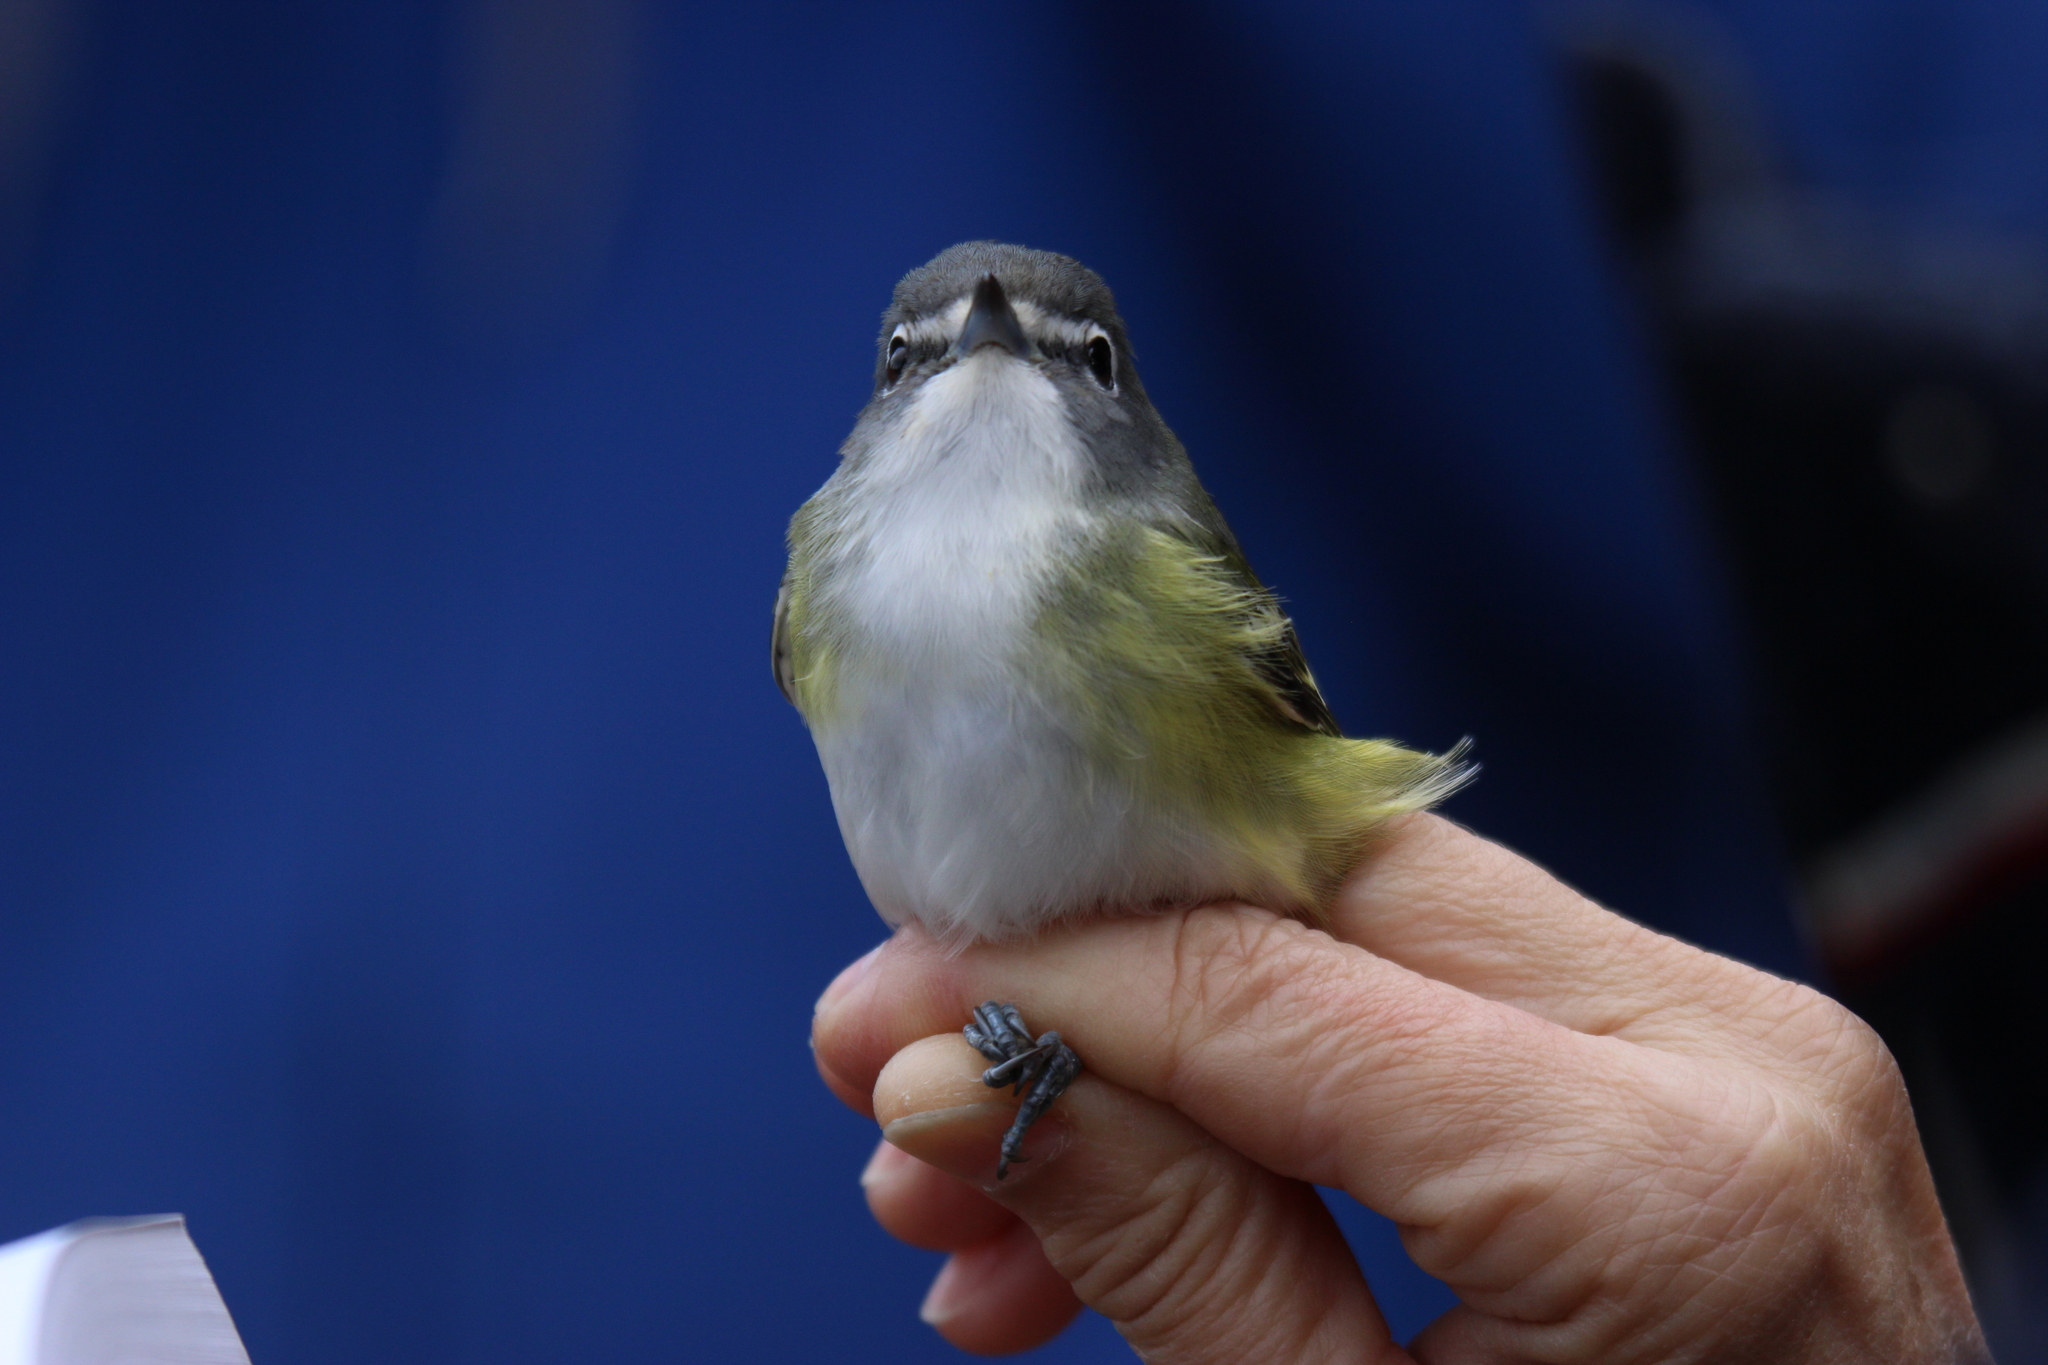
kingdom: Animalia
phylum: Chordata
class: Aves
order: Passeriformes
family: Vireonidae
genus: Vireo
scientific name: Vireo solitarius
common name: Blue-headed vireo
